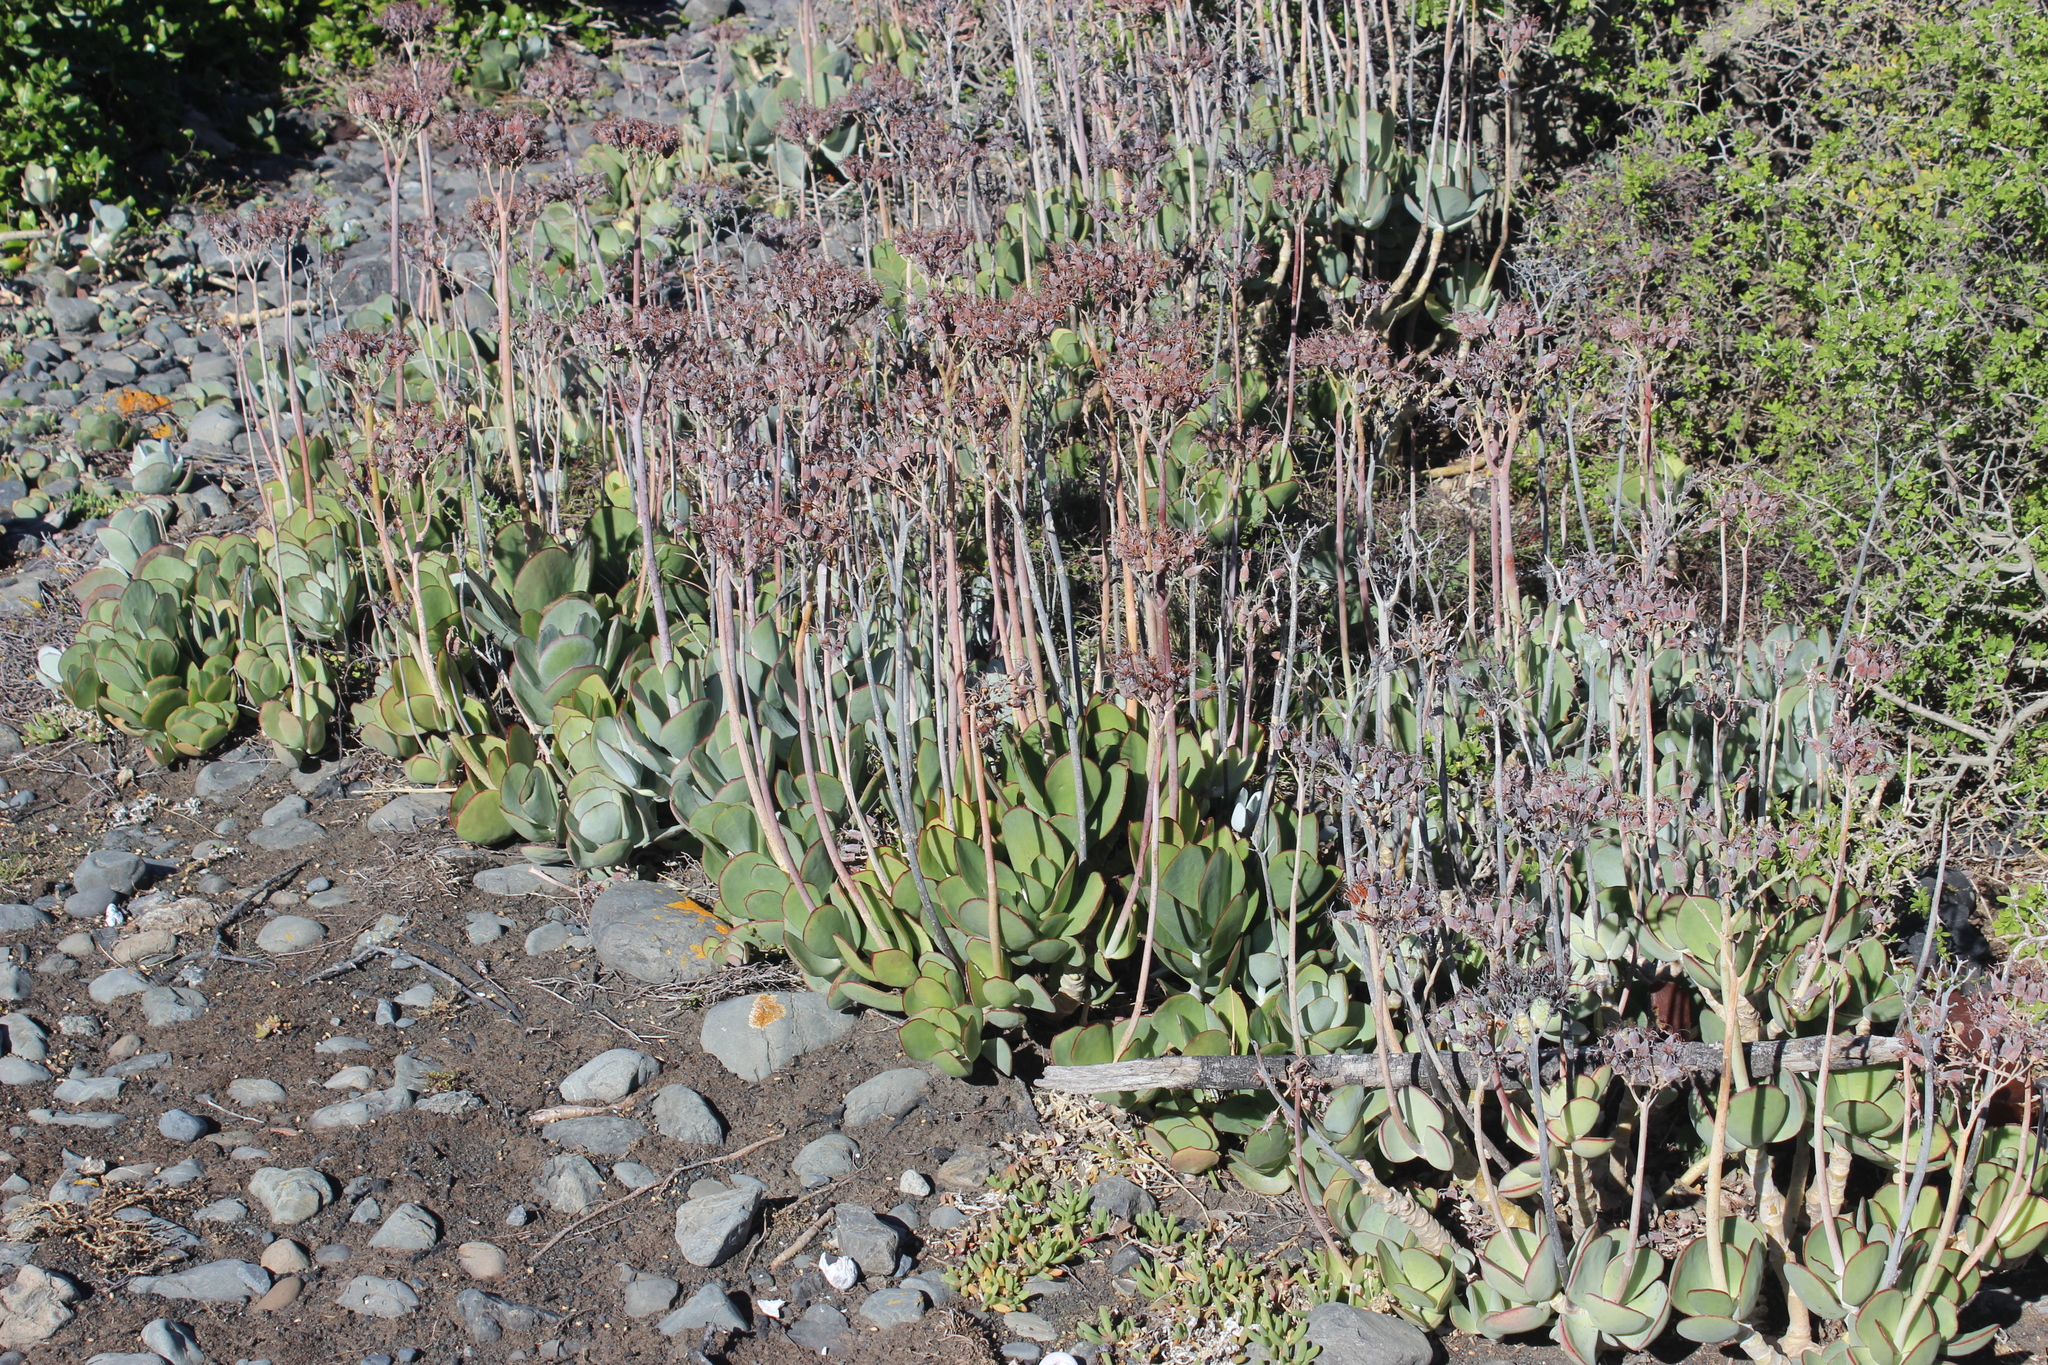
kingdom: Plantae
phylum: Tracheophyta
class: Magnoliopsida
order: Caryophyllales
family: Aizoaceae
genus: Disphyma
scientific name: Disphyma australe
